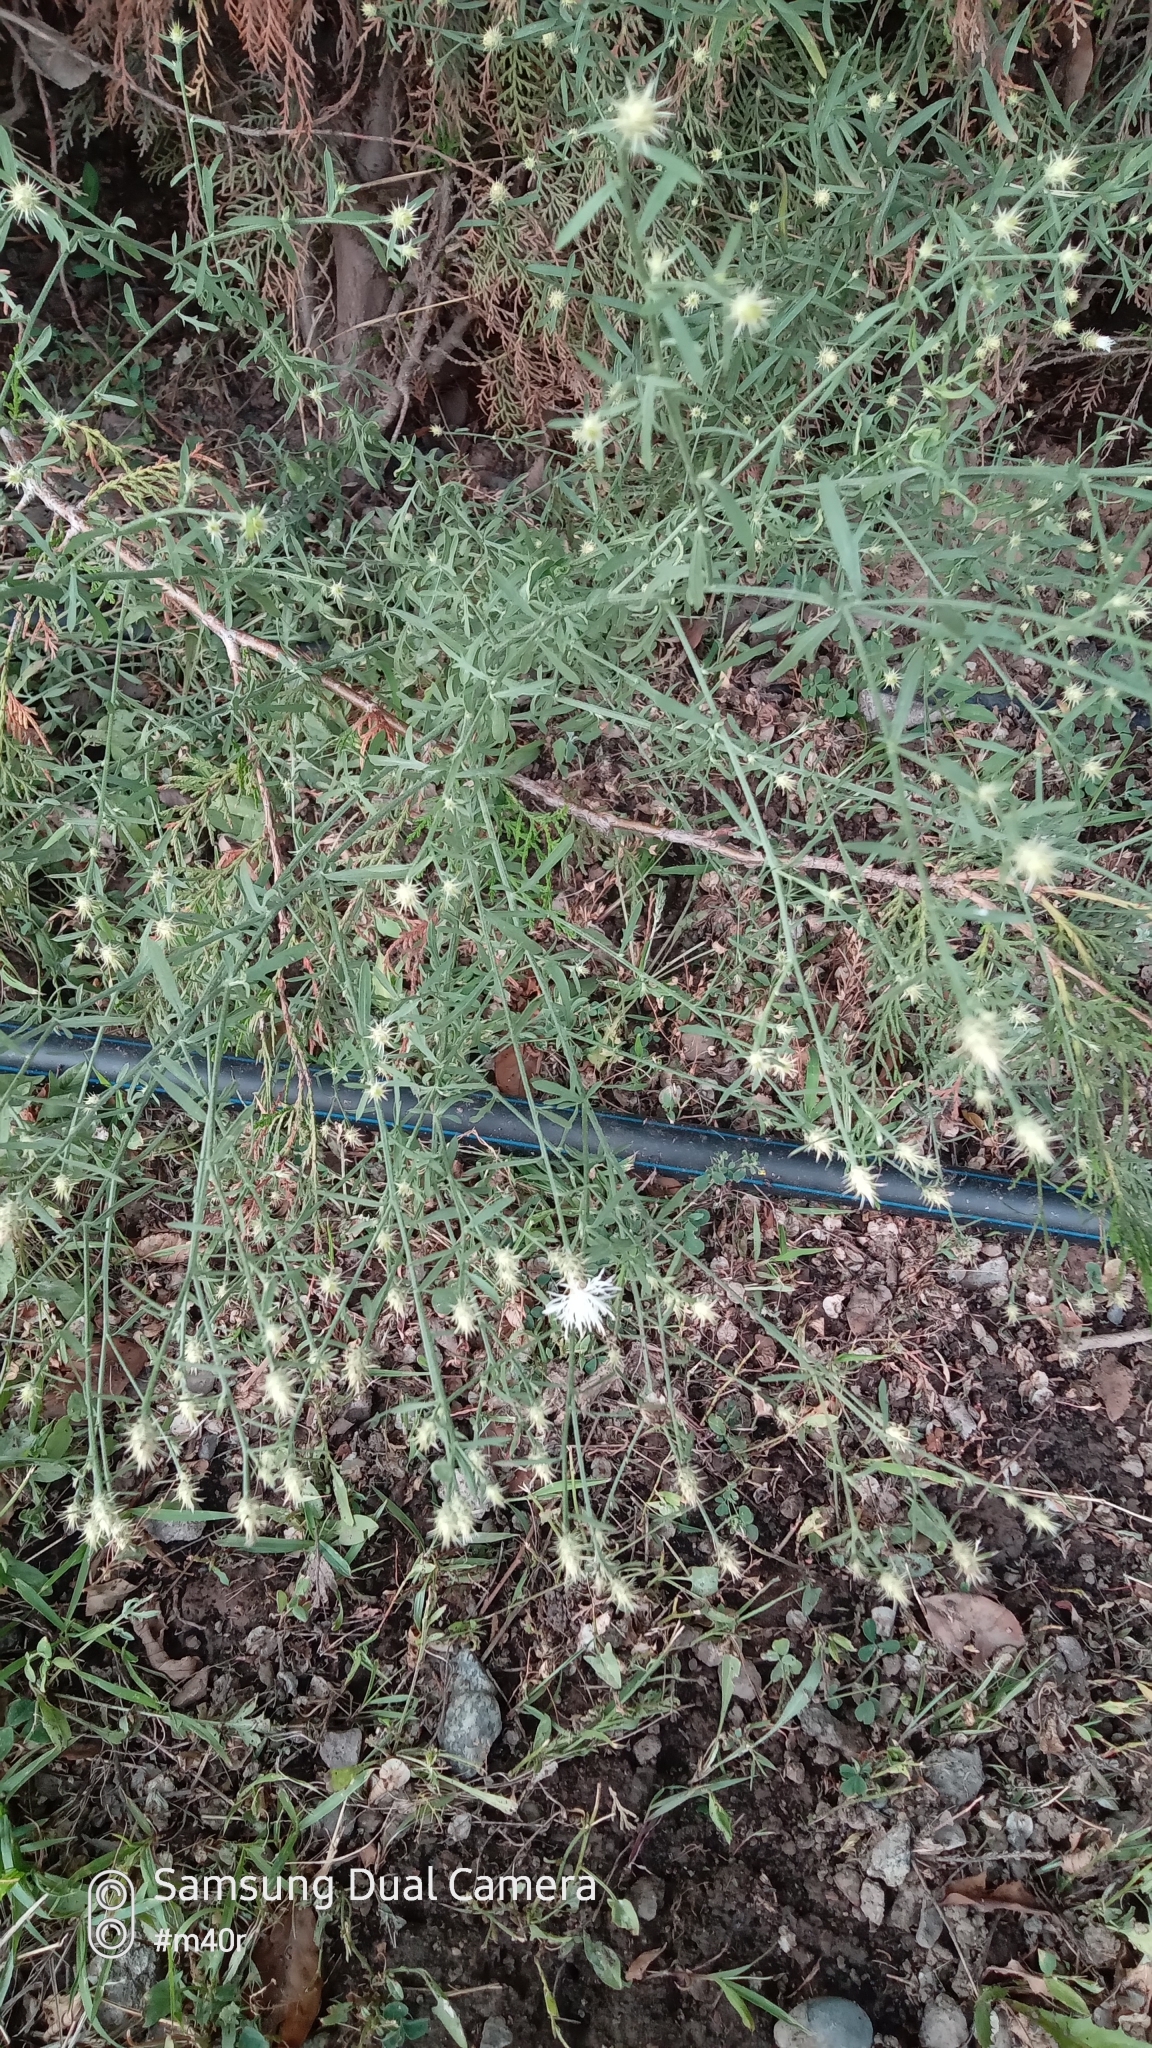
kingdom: Plantae
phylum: Tracheophyta
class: Magnoliopsida
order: Asterales
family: Asteraceae
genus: Centaurea
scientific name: Centaurea diffusa
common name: Diffuse knapweed
